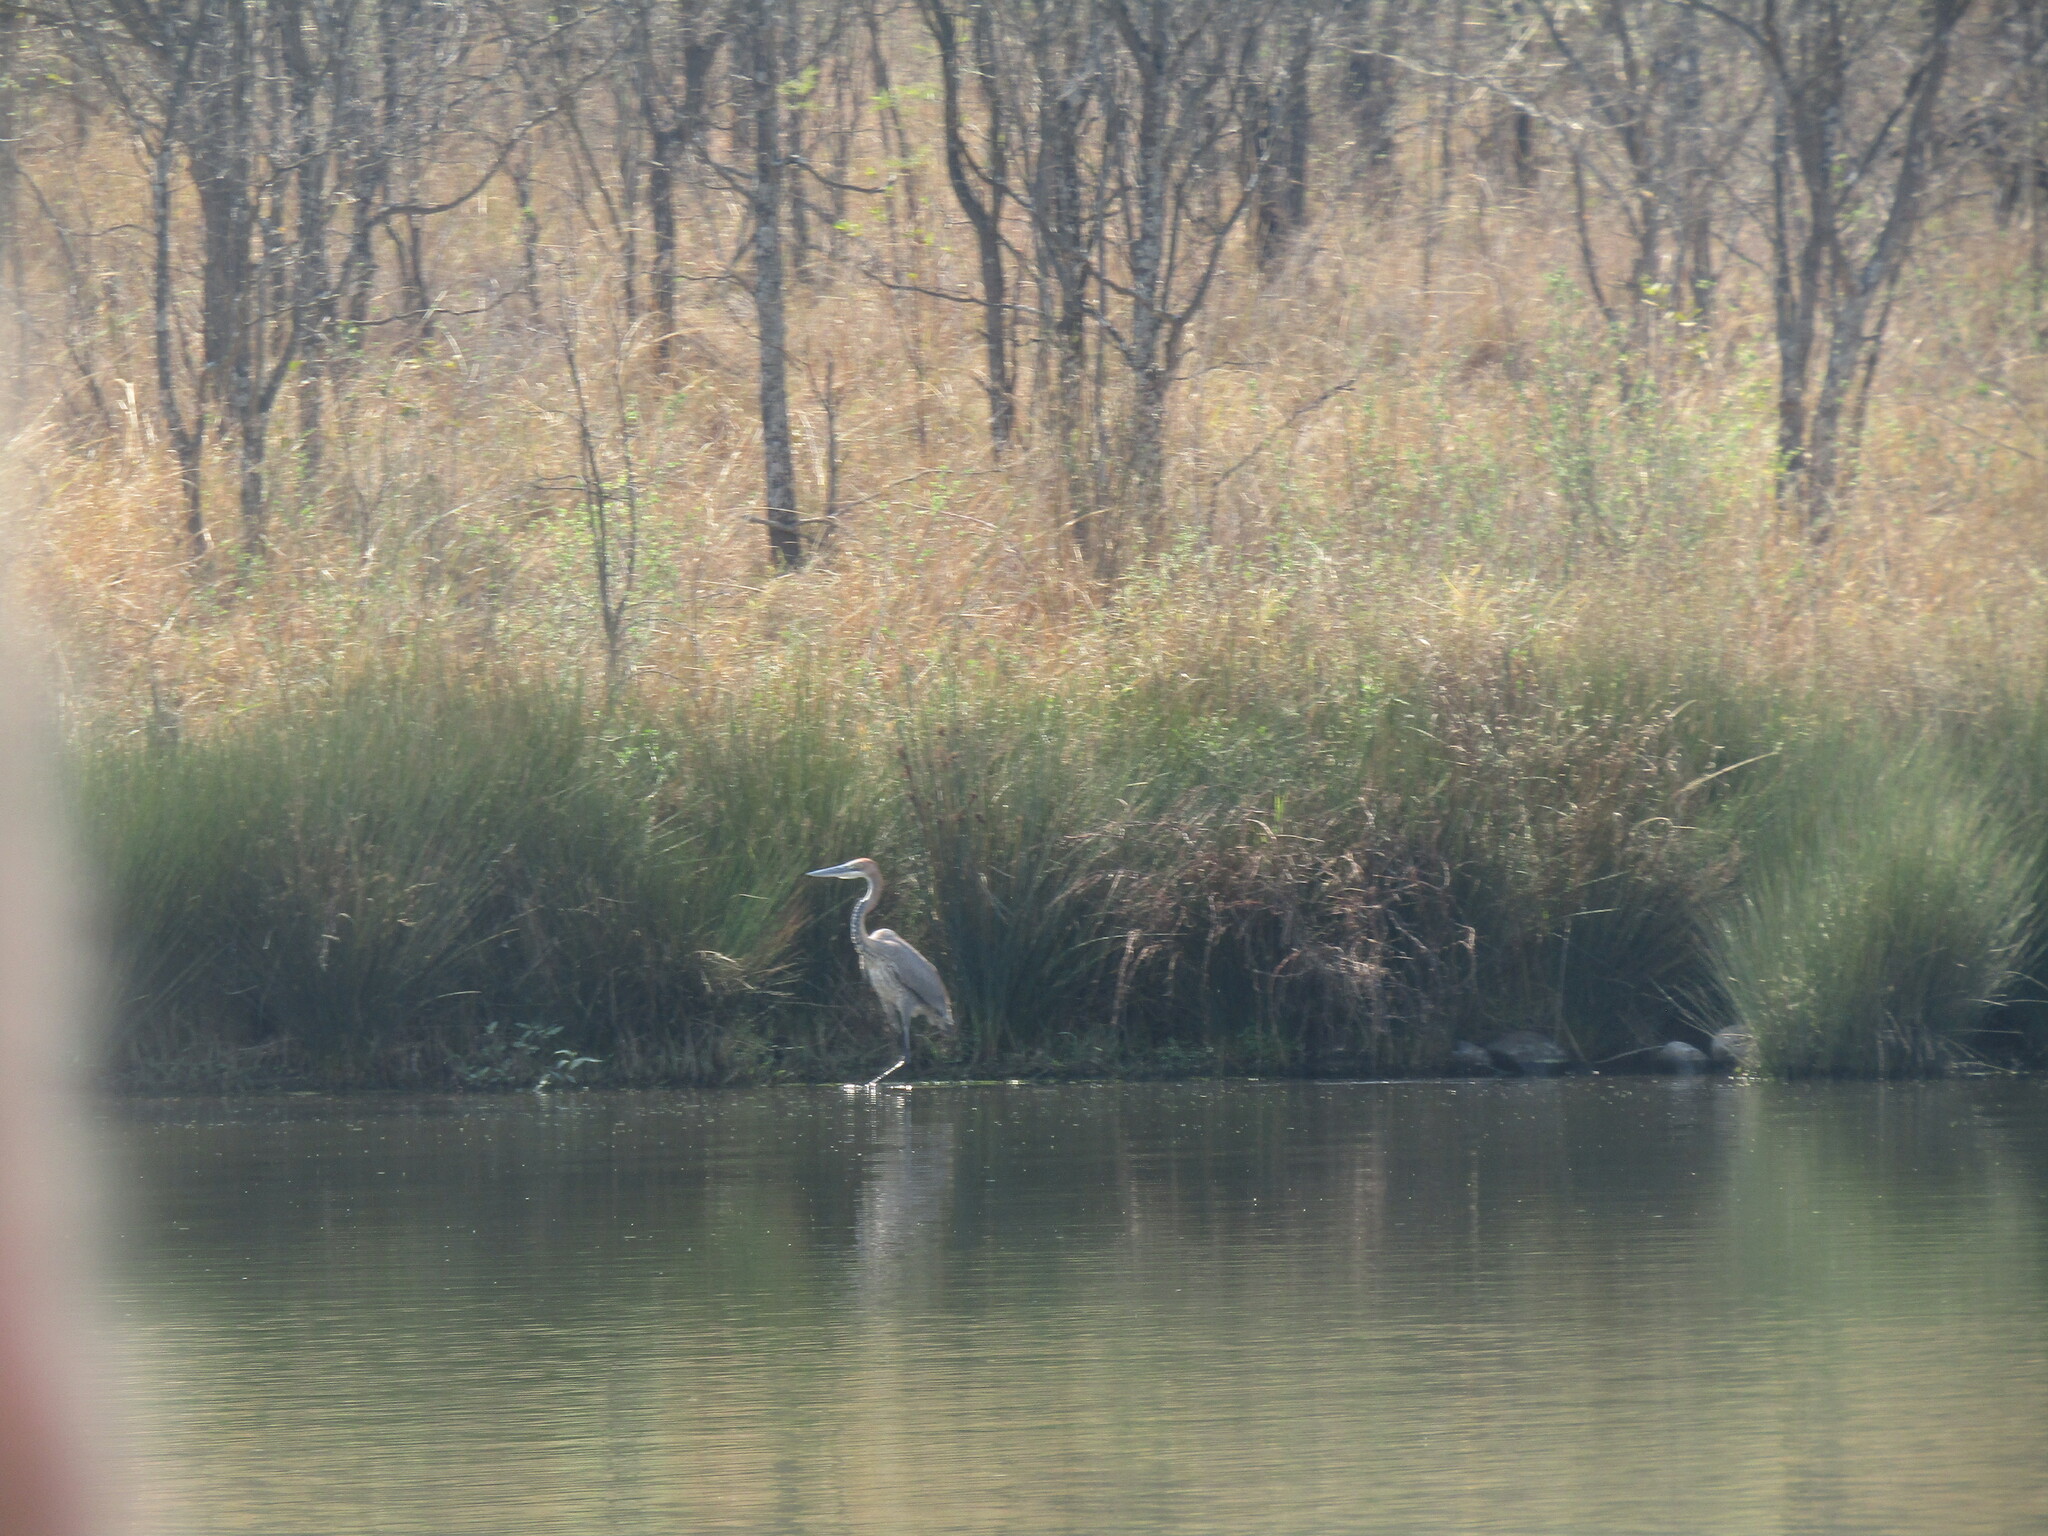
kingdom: Animalia
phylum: Chordata
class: Aves
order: Pelecaniformes
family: Ardeidae
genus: Ardea
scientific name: Ardea goliath
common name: Goliath heron
